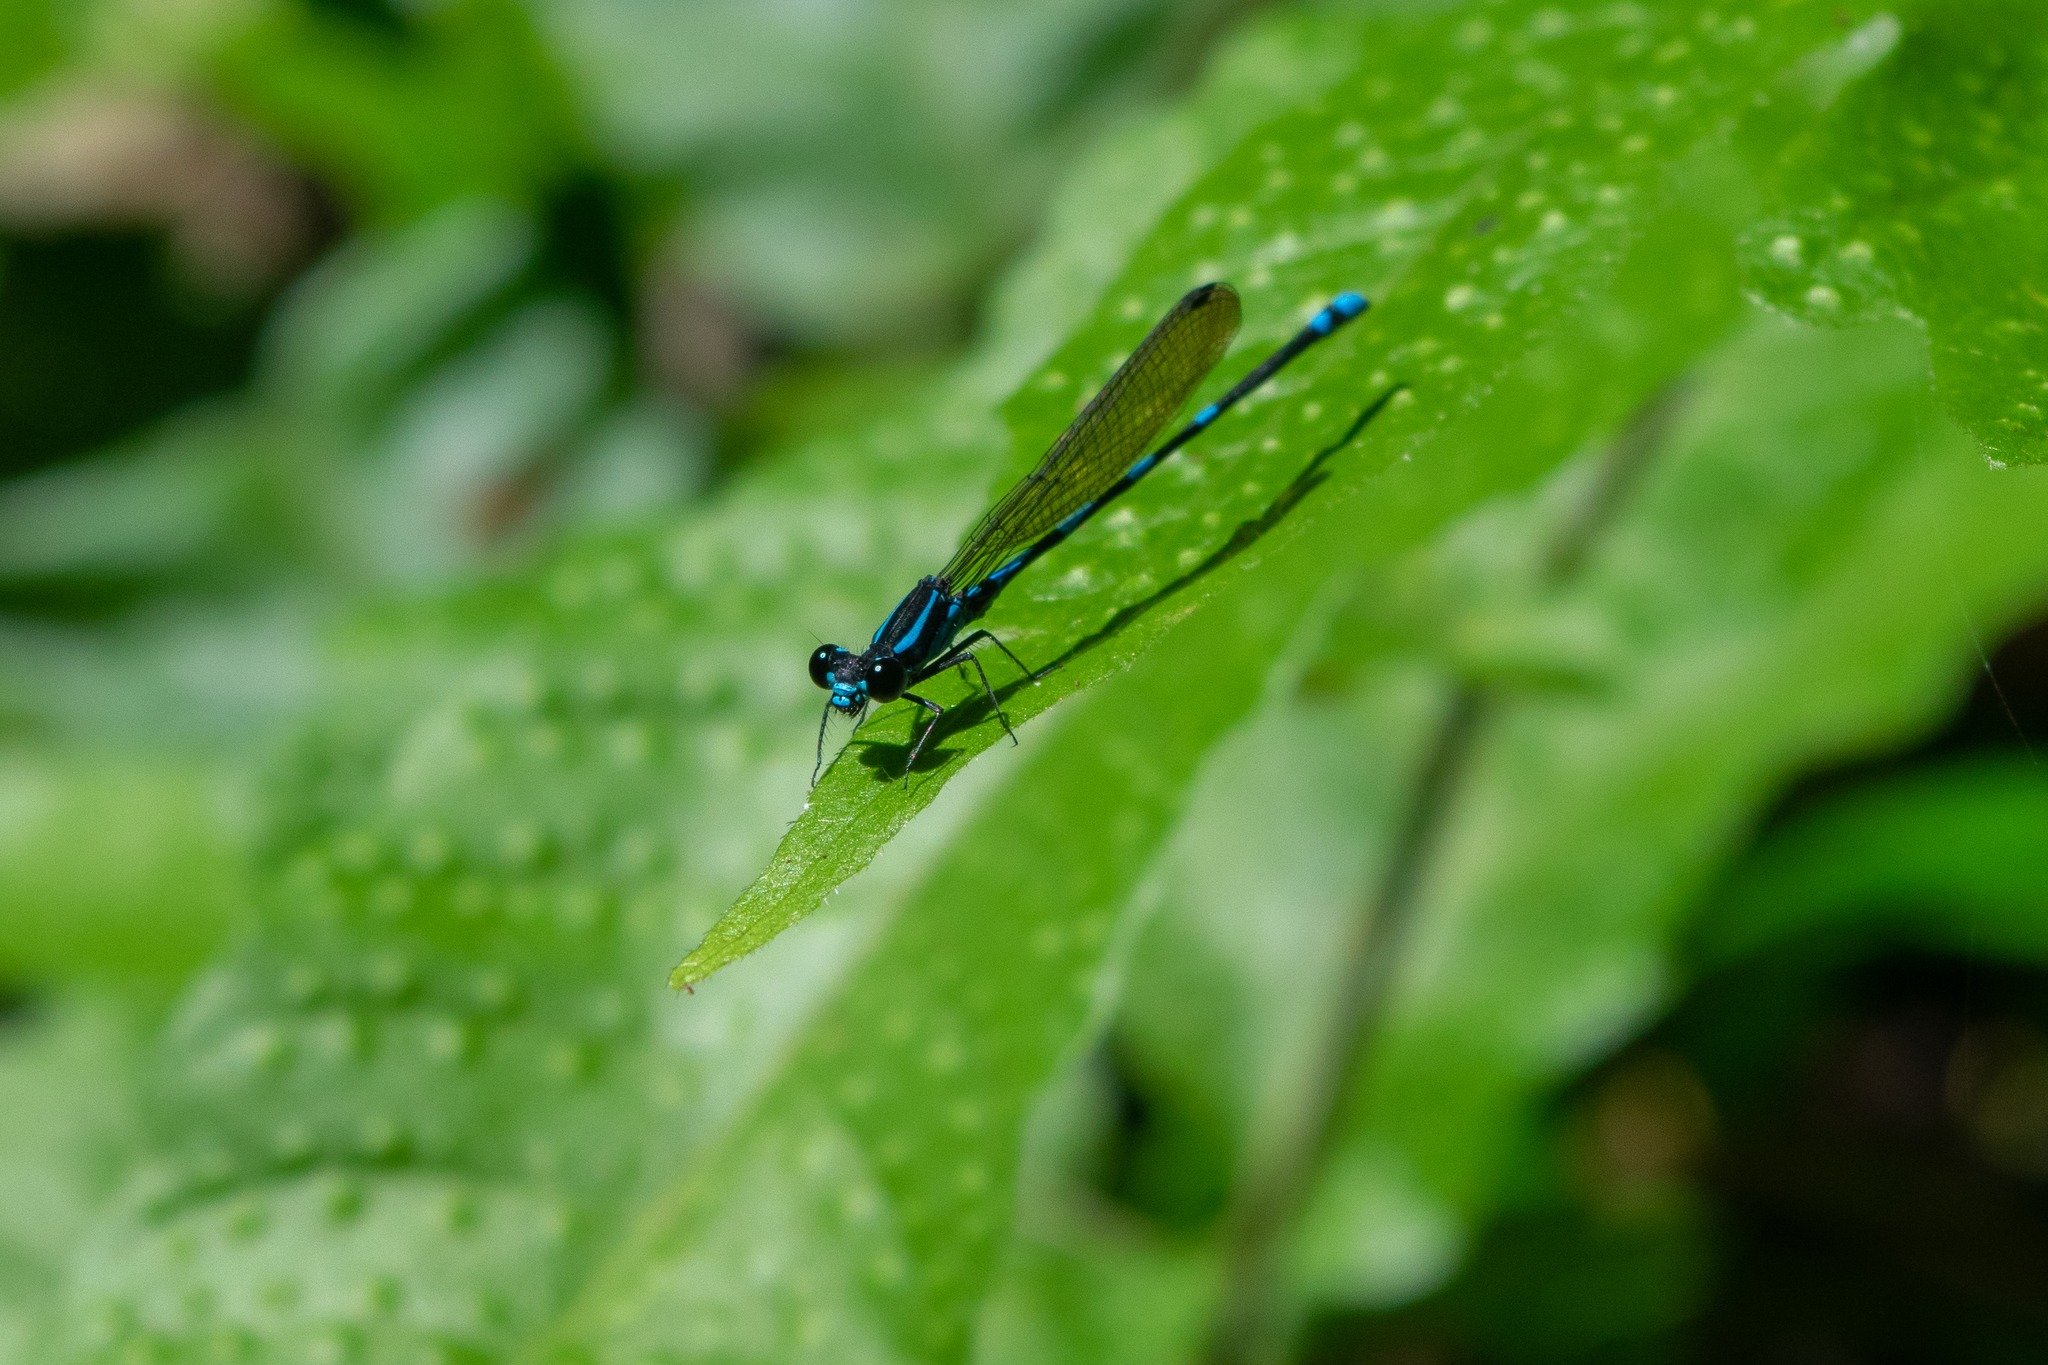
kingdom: Animalia
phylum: Arthropoda
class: Insecta
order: Odonata
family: Coenagrionidae
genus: Argia
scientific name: Argia adamsi
